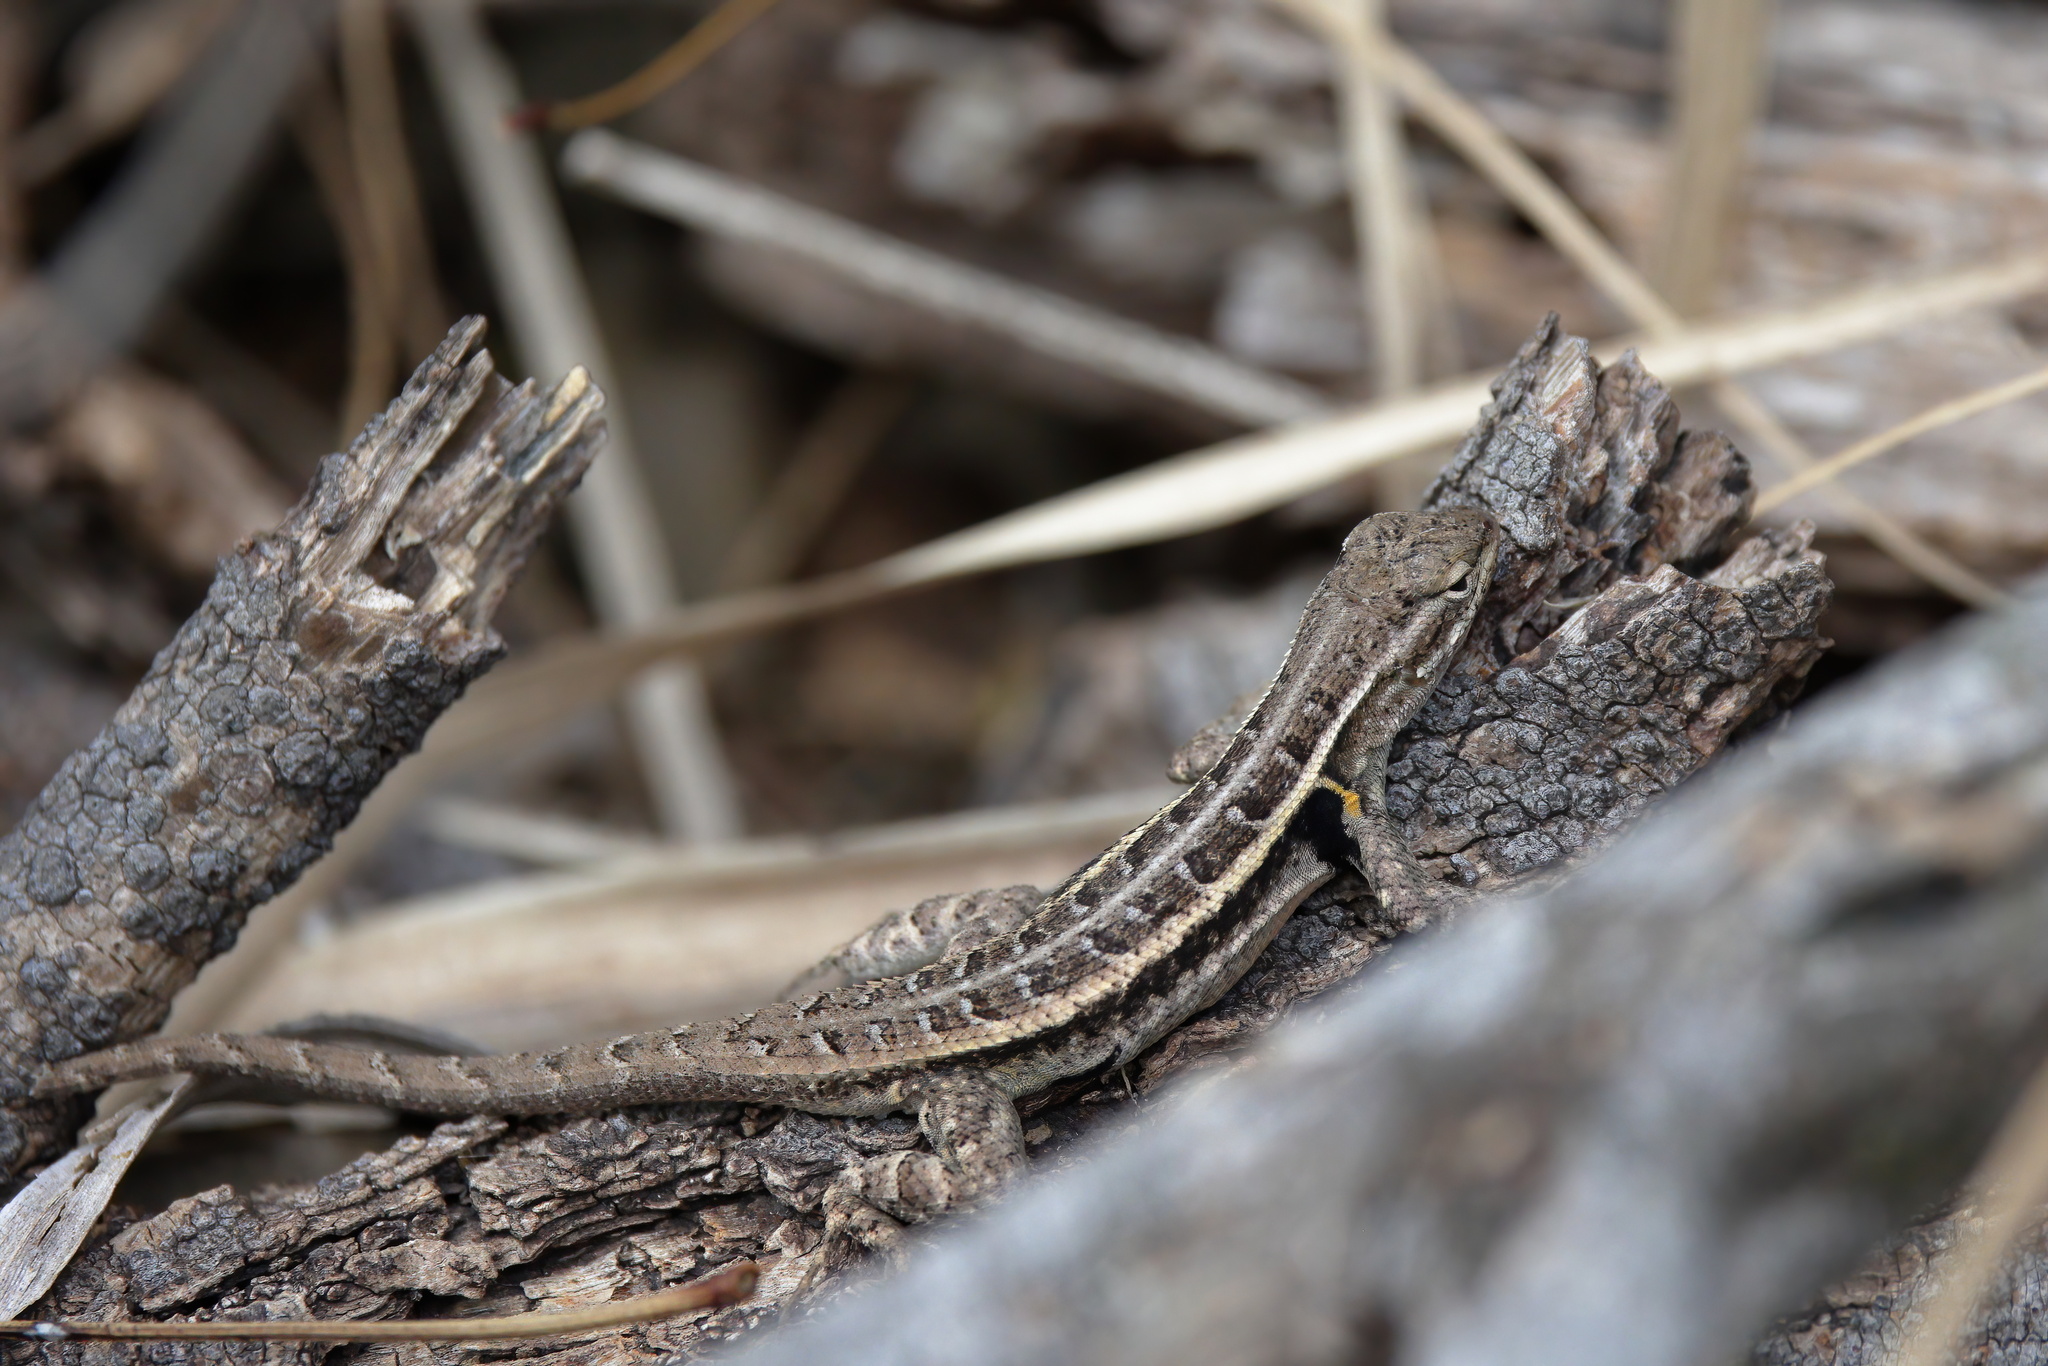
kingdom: Animalia
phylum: Chordata
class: Squamata
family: Phrynosomatidae
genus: Sceloporus
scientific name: Sceloporus variabilis
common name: Rosebelly lizard
